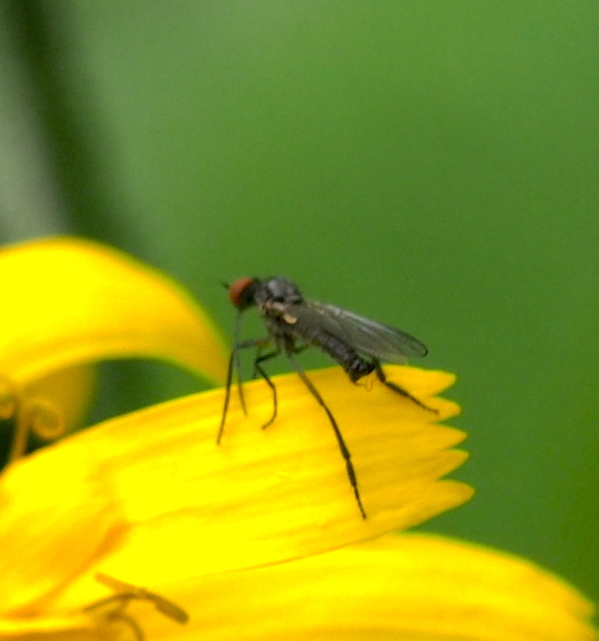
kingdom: Animalia
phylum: Arthropoda
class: Insecta
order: Diptera
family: Empididae
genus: Empis
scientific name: Empis tanysphyra
